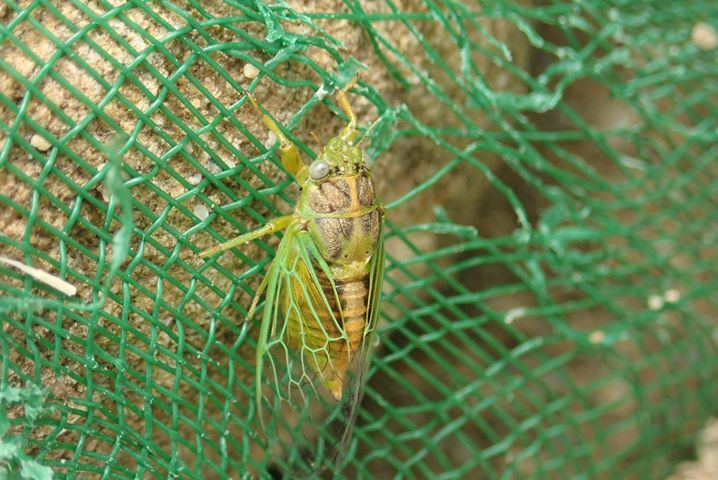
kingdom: Animalia
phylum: Arthropoda
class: Insecta
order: Hemiptera
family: Cicadidae
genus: Mogannia
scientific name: Mogannia hebes
